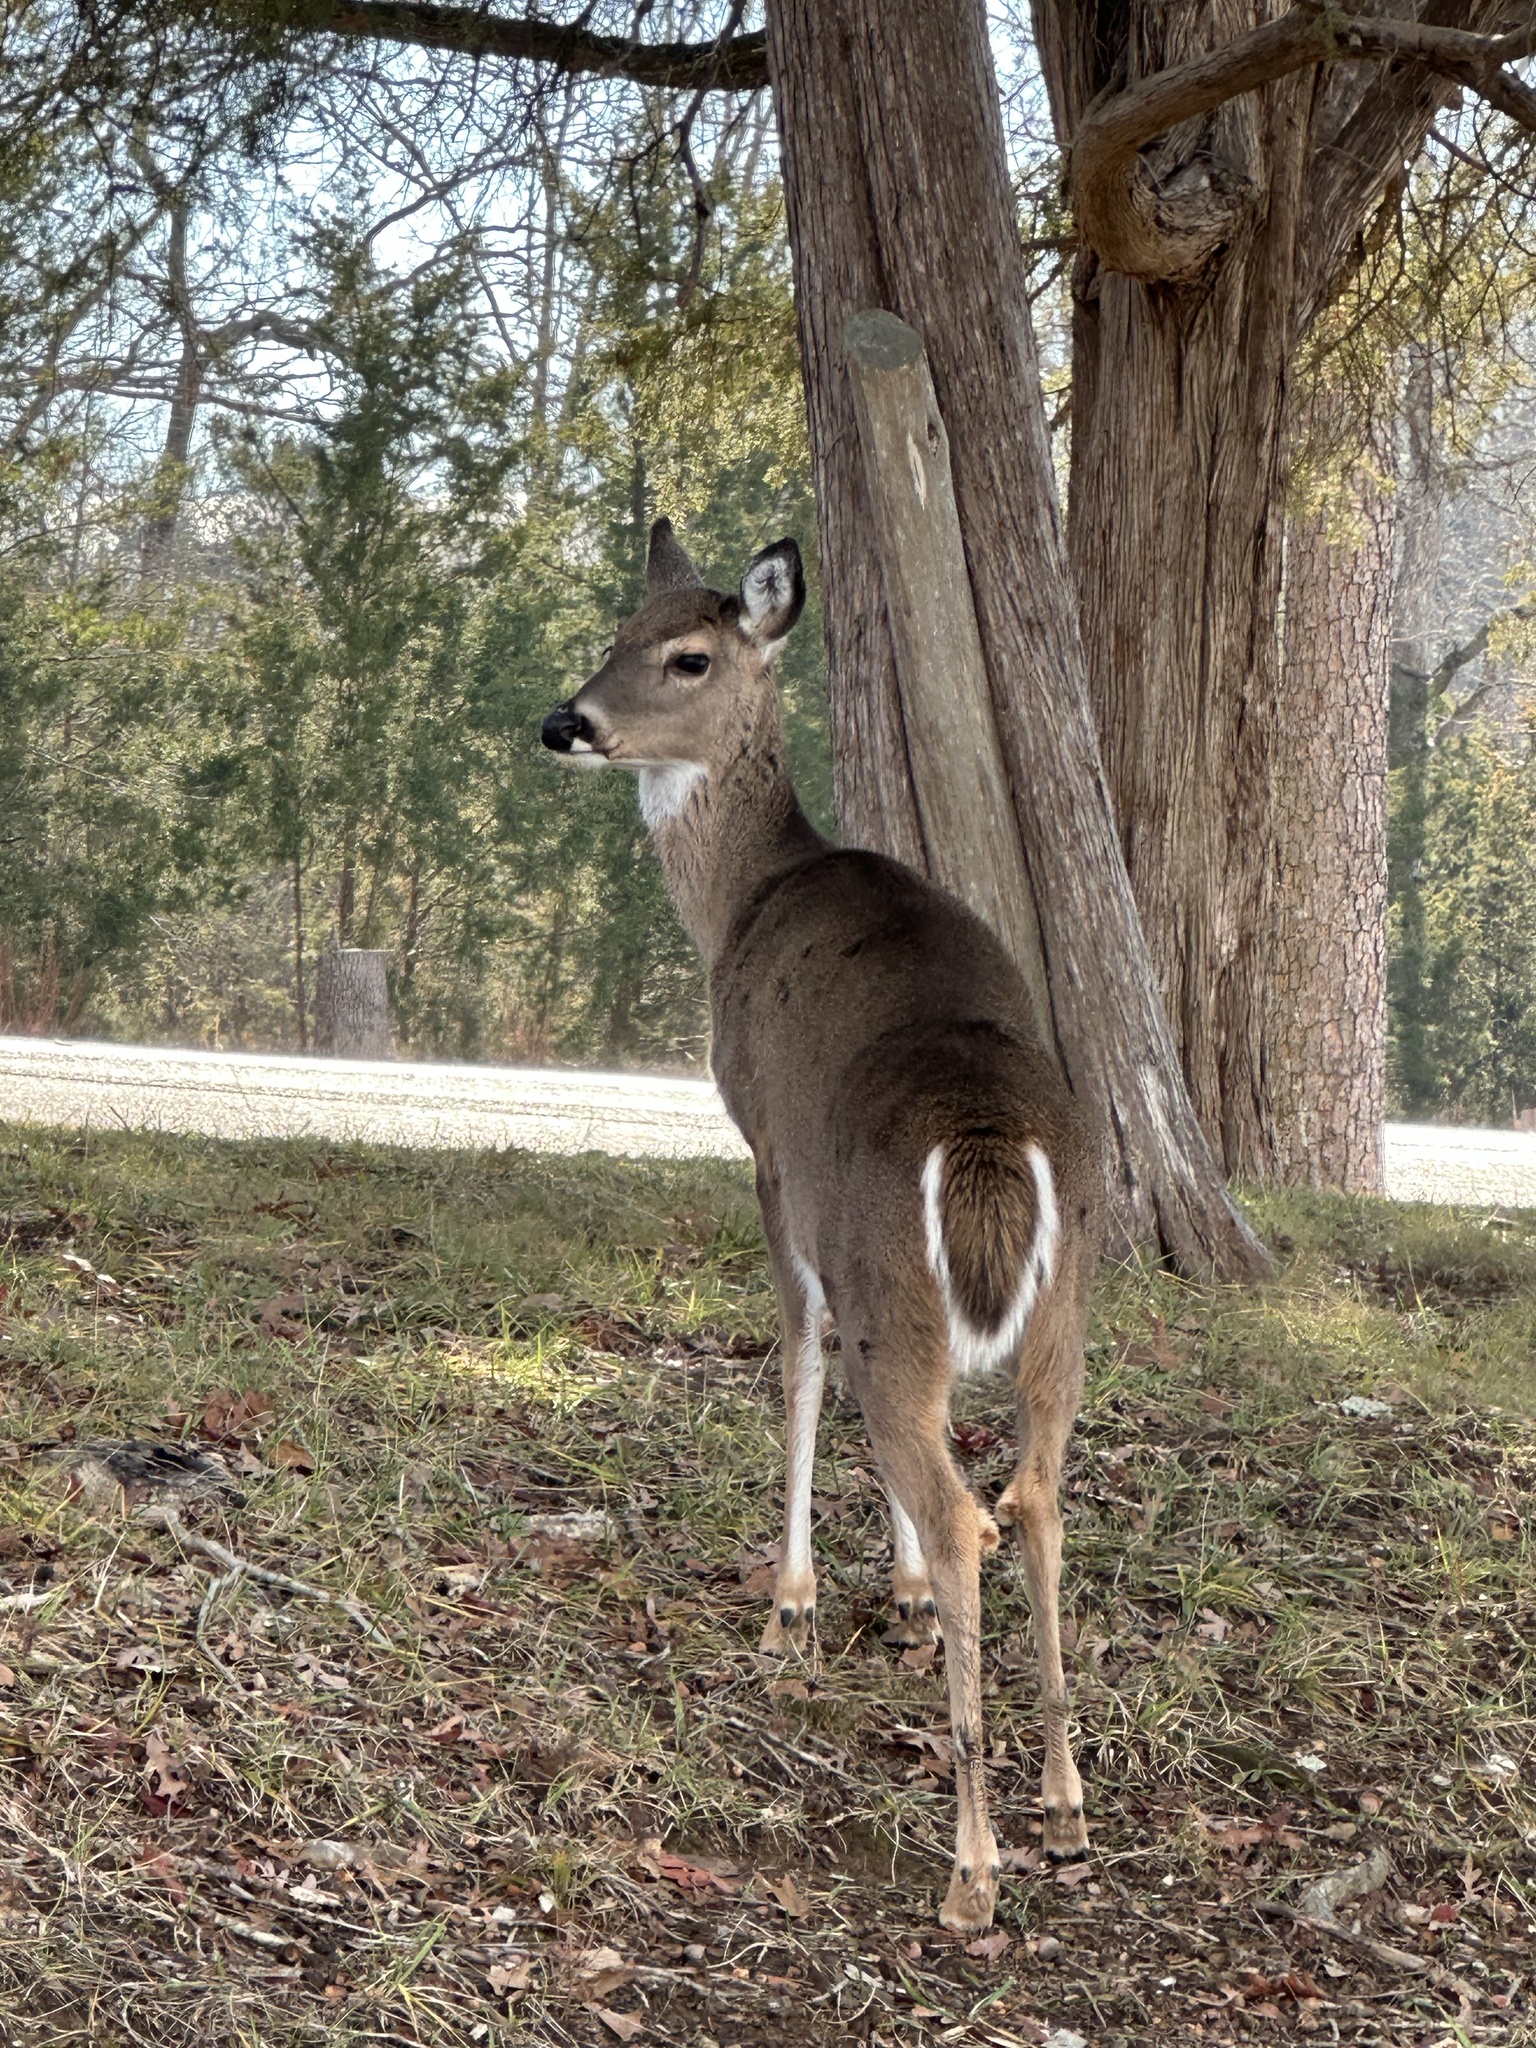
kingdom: Animalia
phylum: Chordata
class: Mammalia
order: Artiodactyla
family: Cervidae
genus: Odocoileus
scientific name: Odocoileus virginianus
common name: White-tailed deer
